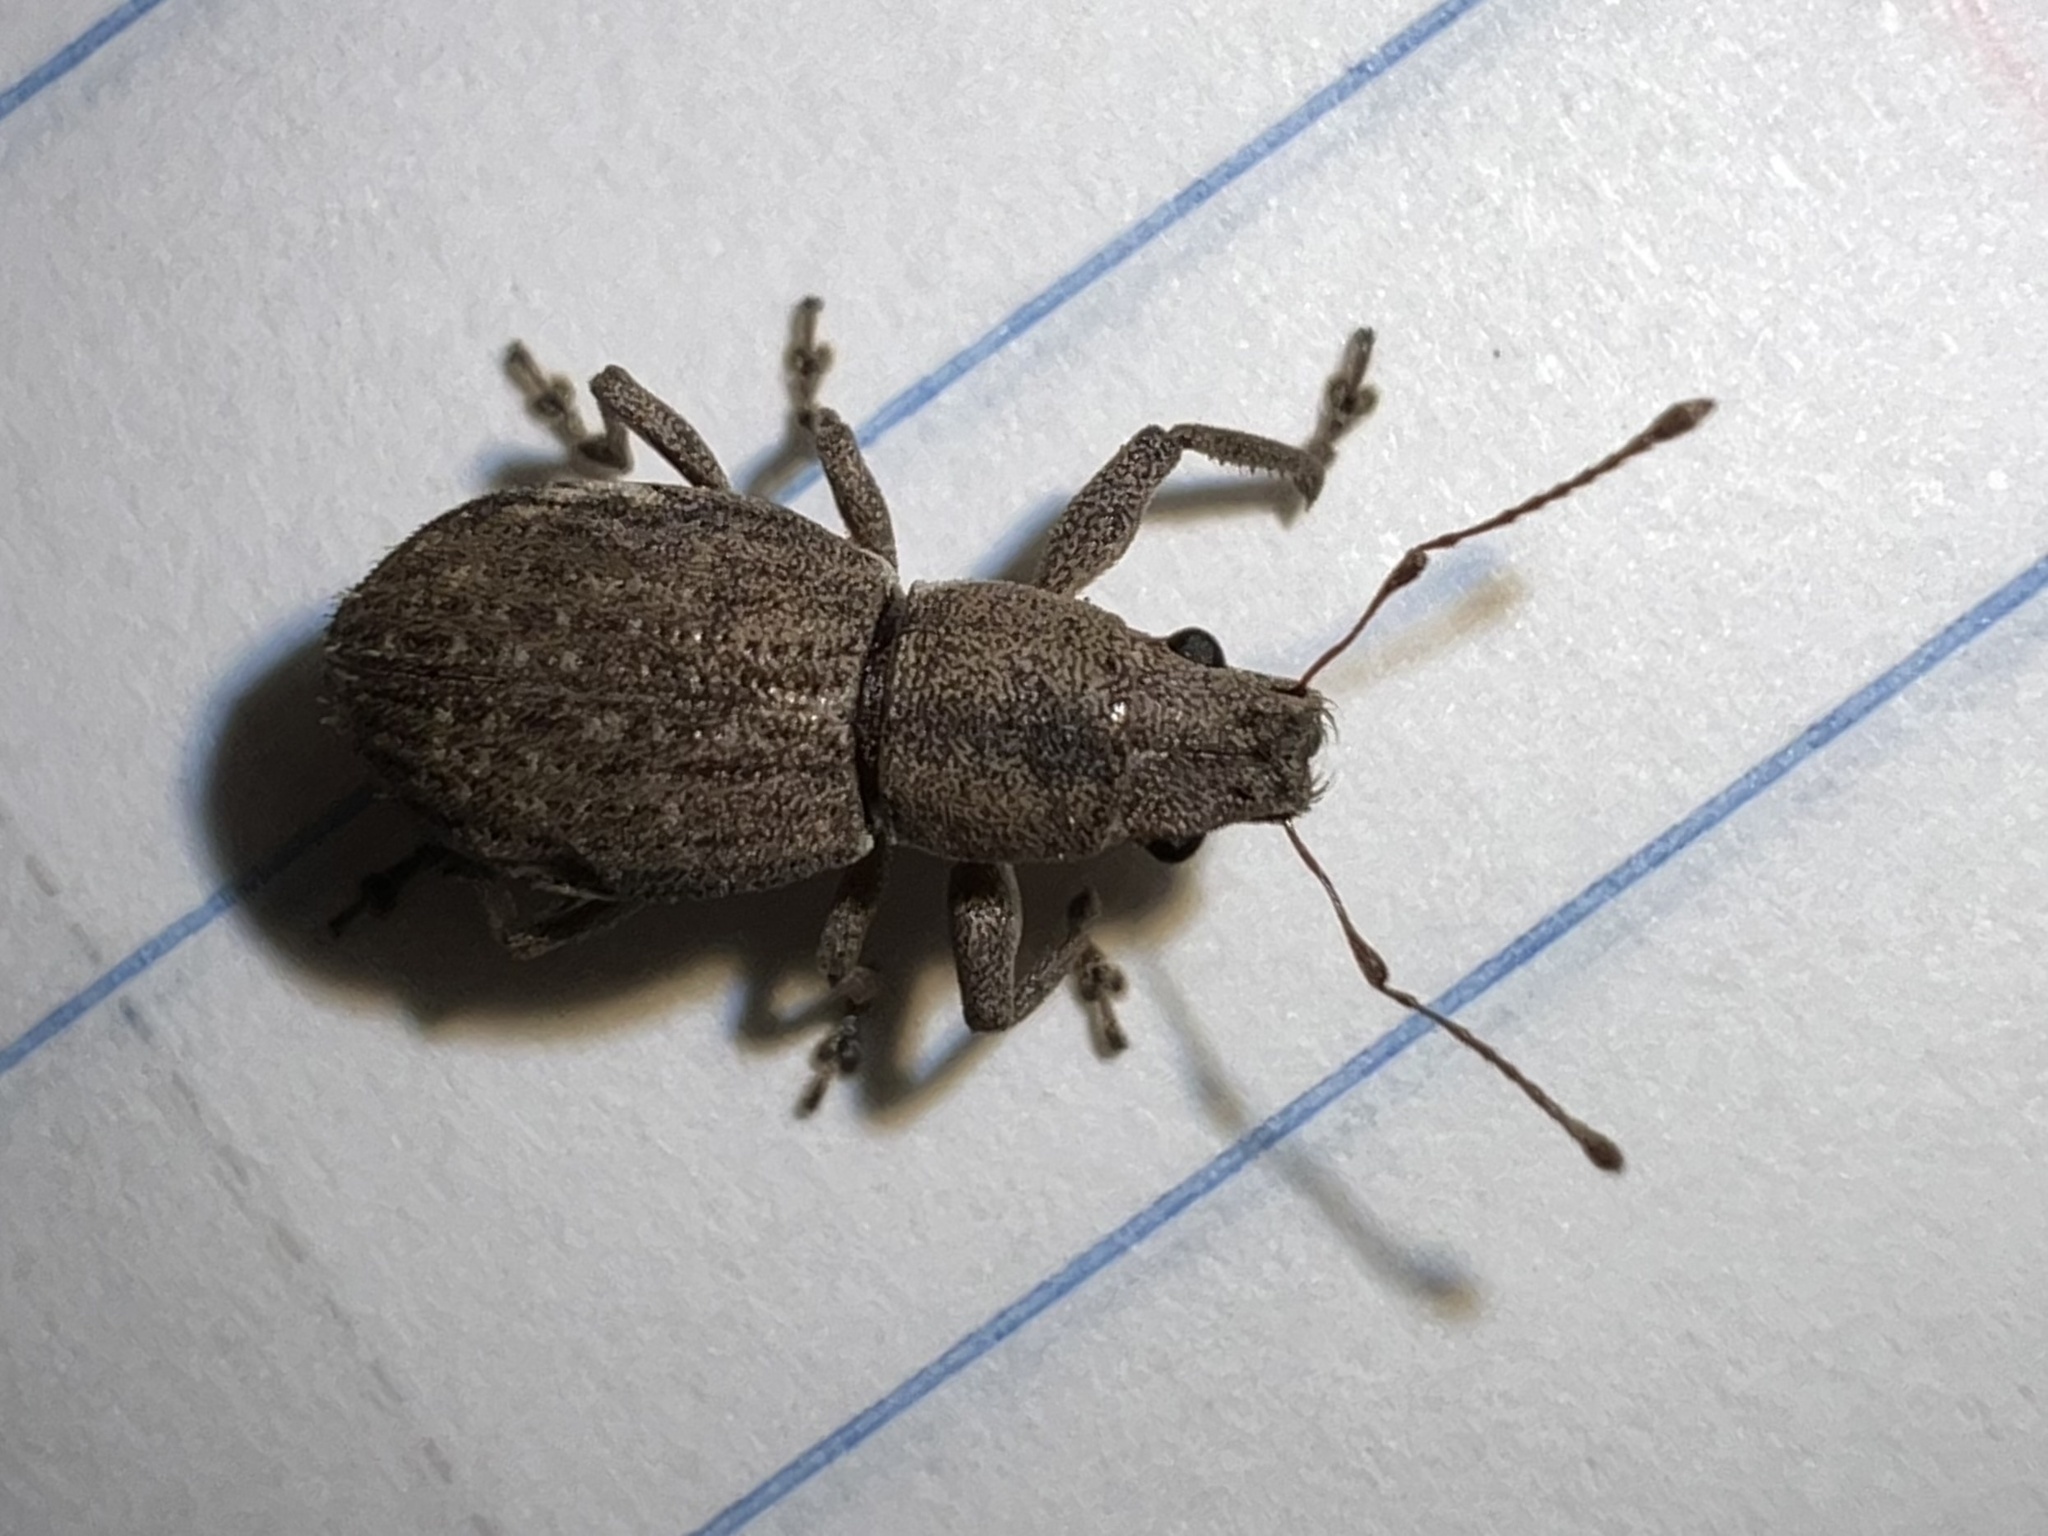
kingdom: Animalia
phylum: Arthropoda
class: Insecta
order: Coleoptera
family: Curculionidae
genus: Naupactus
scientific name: Naupactus cervinus
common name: Fuller rose beetle
